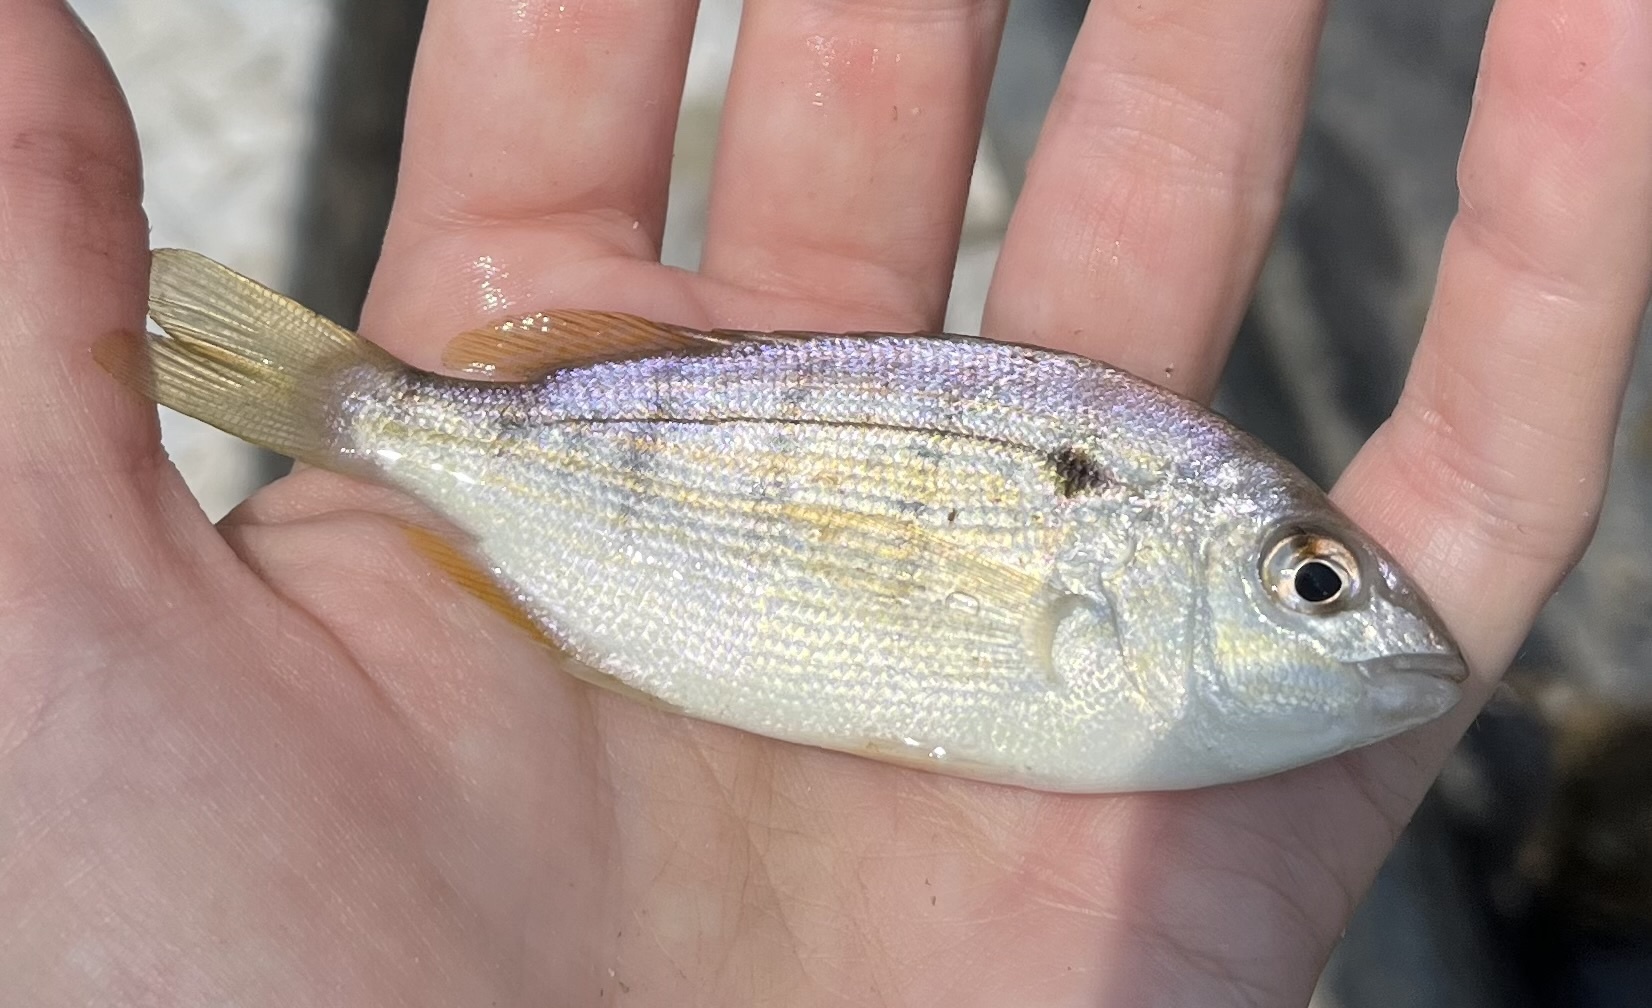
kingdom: Animalia
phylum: Chordata
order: Perciformes
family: Sparidae
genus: Lagodon
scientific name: Lagodon rhomboides
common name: Pinfish
